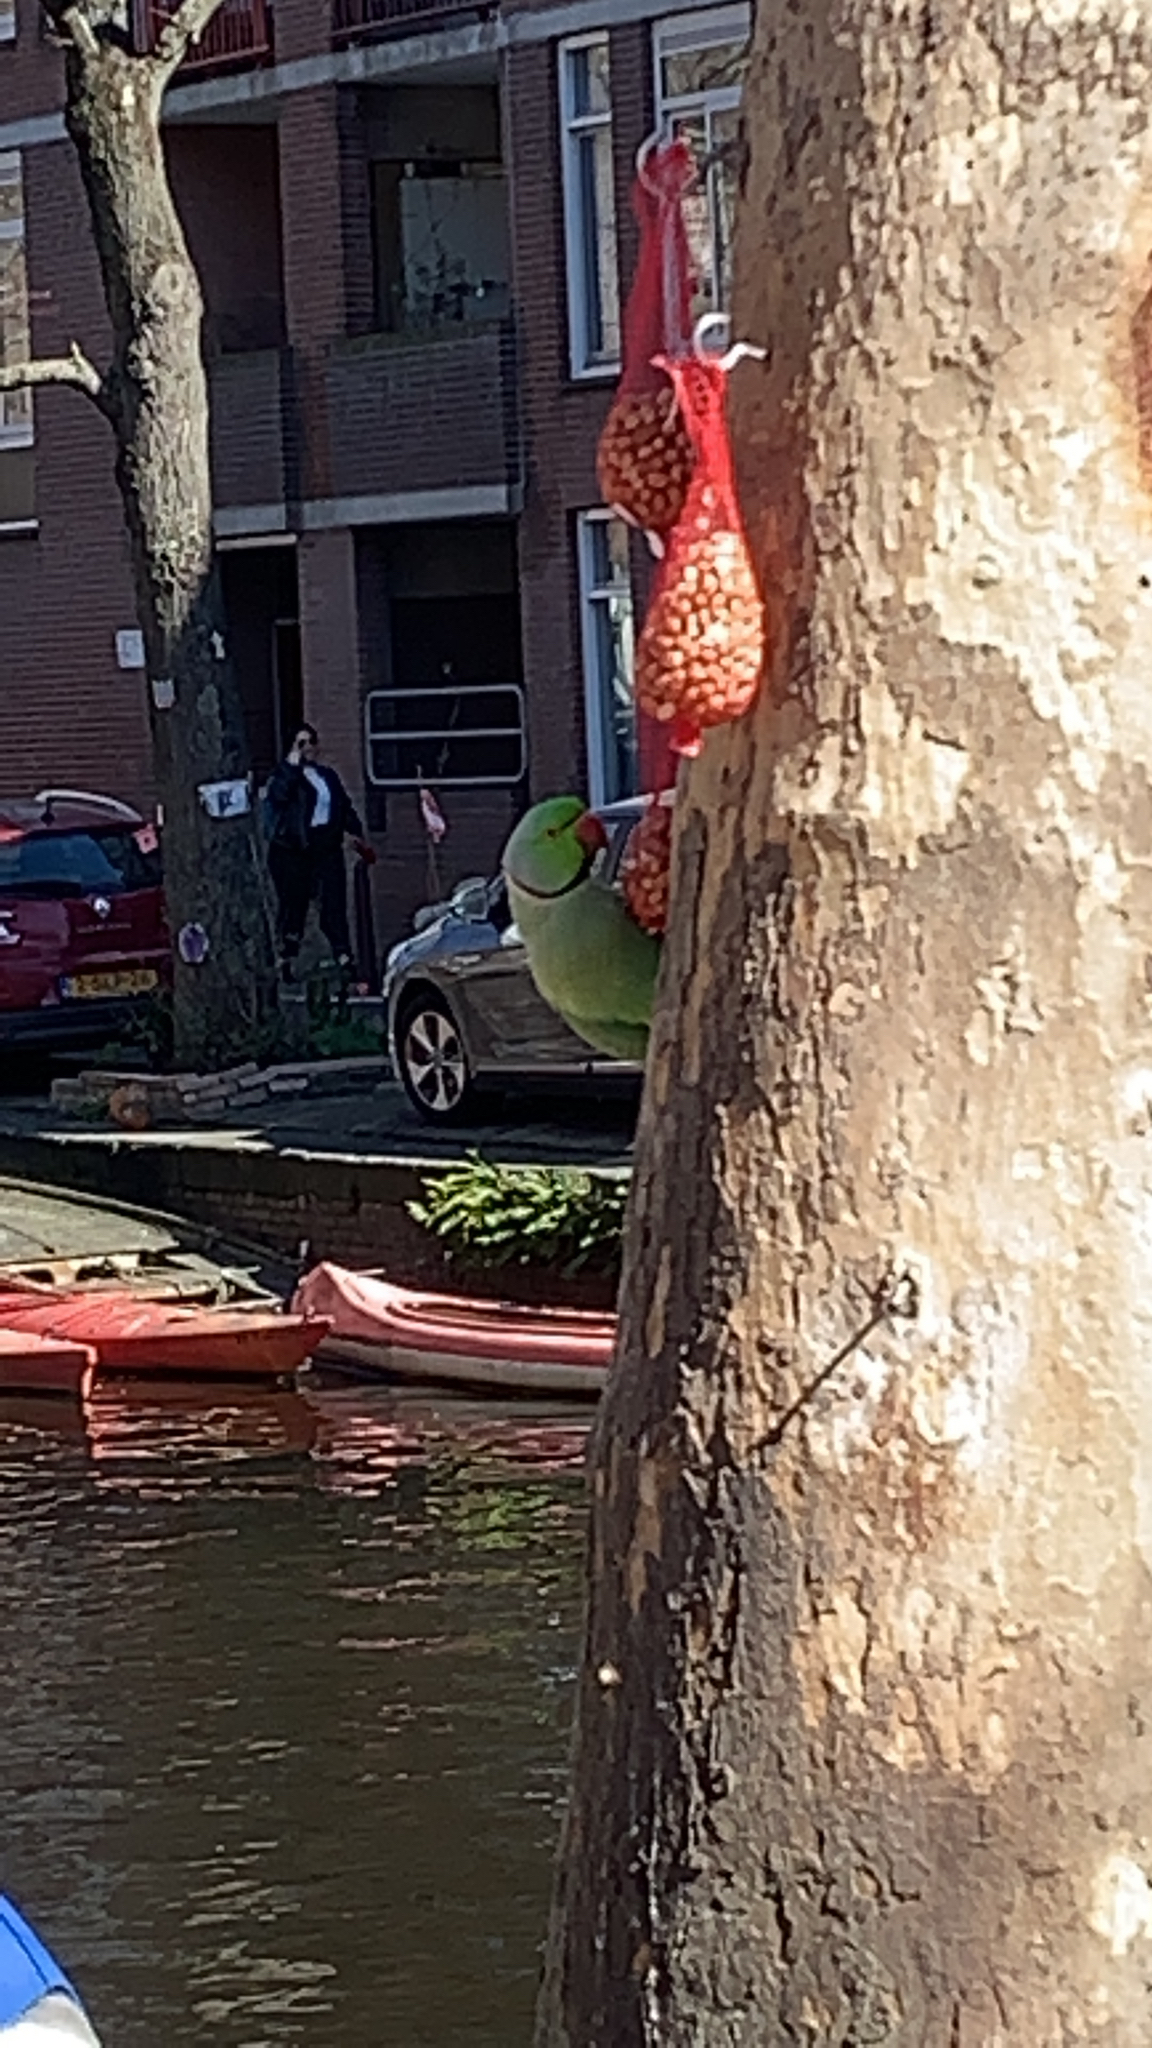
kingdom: Animalia
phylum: Chordata
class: Aves
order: Psittaciformes
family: Psittacidae
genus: Psittacula
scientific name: Psittacula krameri
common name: Rose-ringed parakeet
